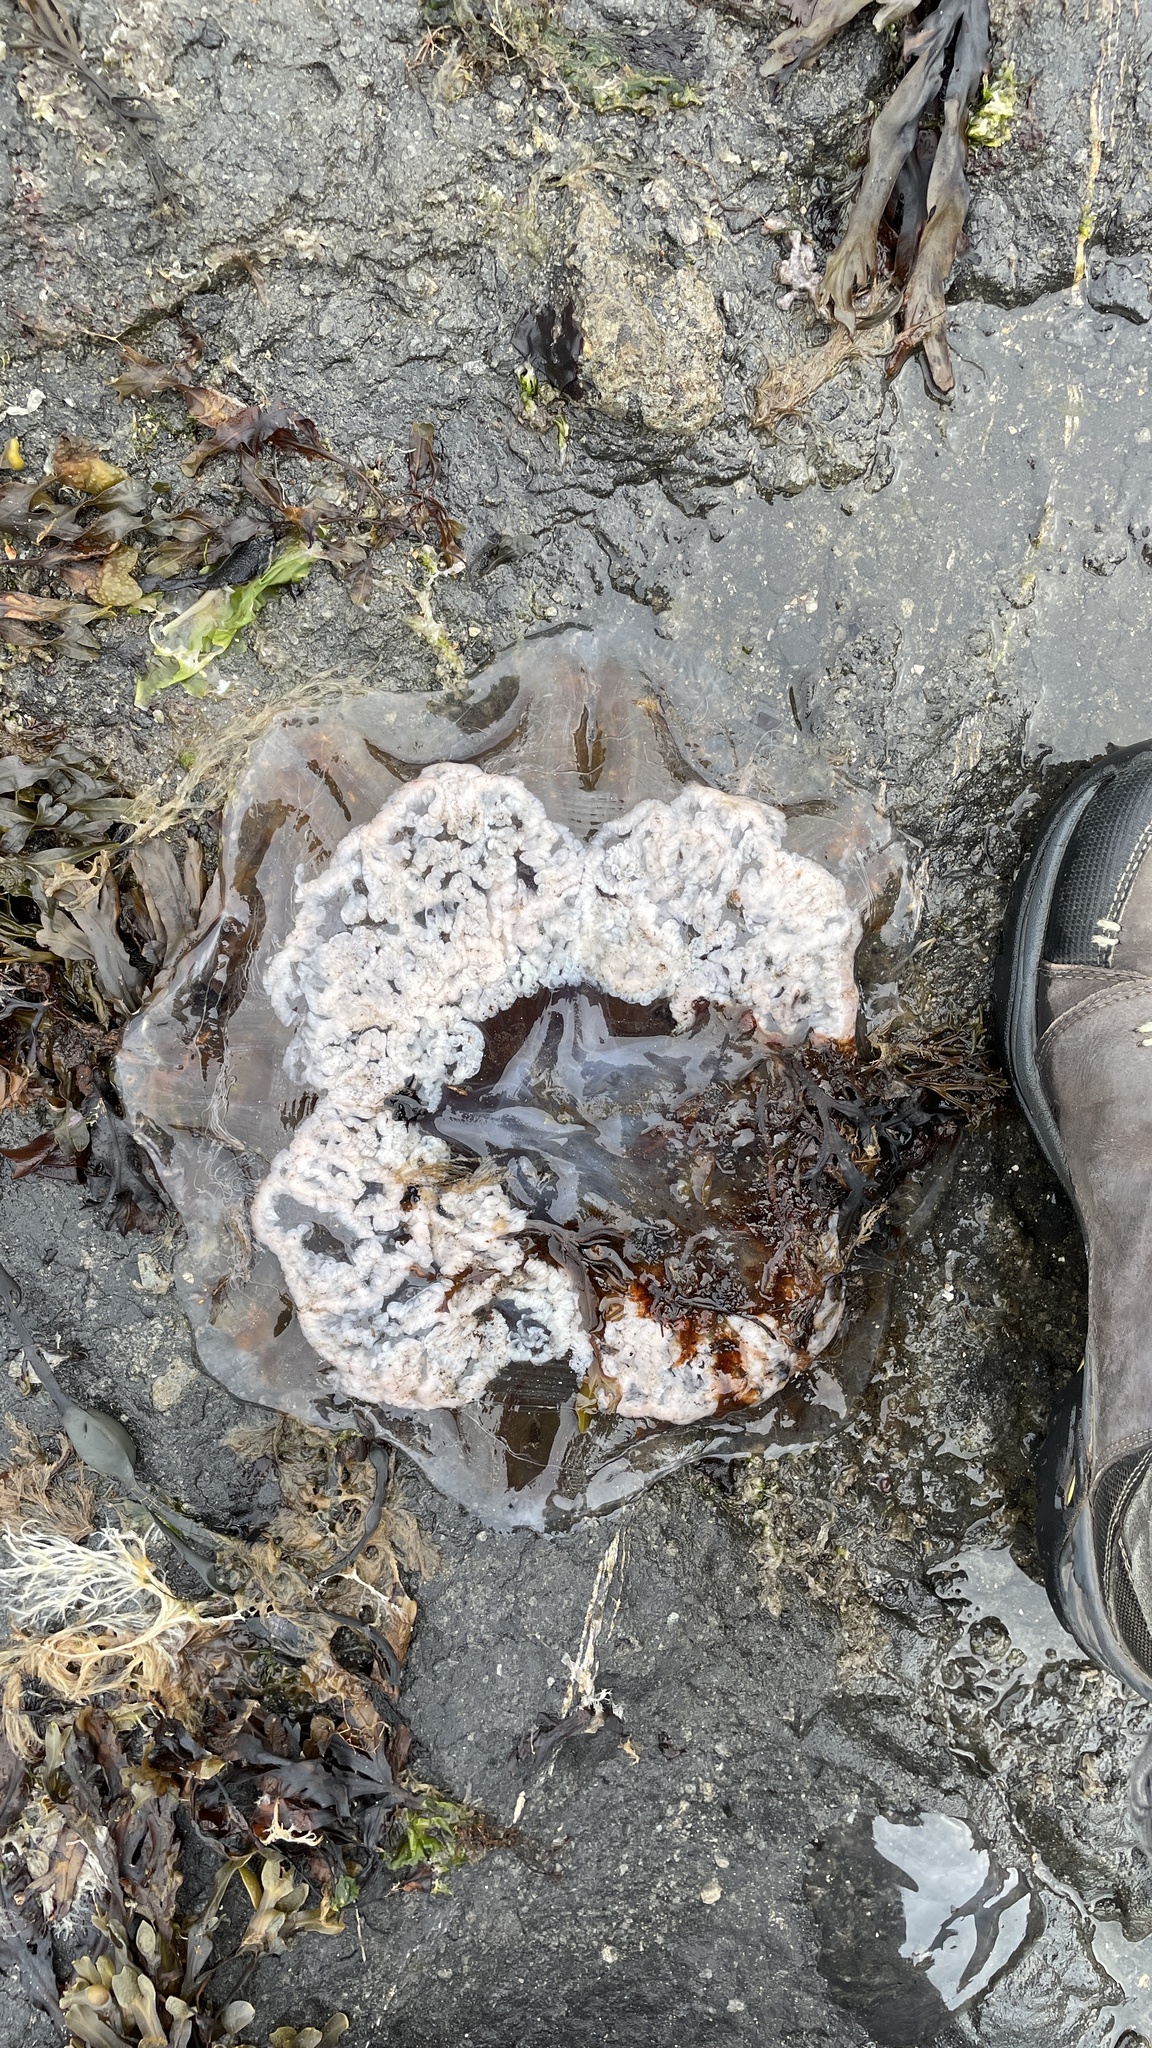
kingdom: Animalia
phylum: Cnidaria
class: Scyphozoa
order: Semaeostomeae
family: Cyaneidae
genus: Cyanea
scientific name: Cyanea capillata
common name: Lion's mane jellyfish
